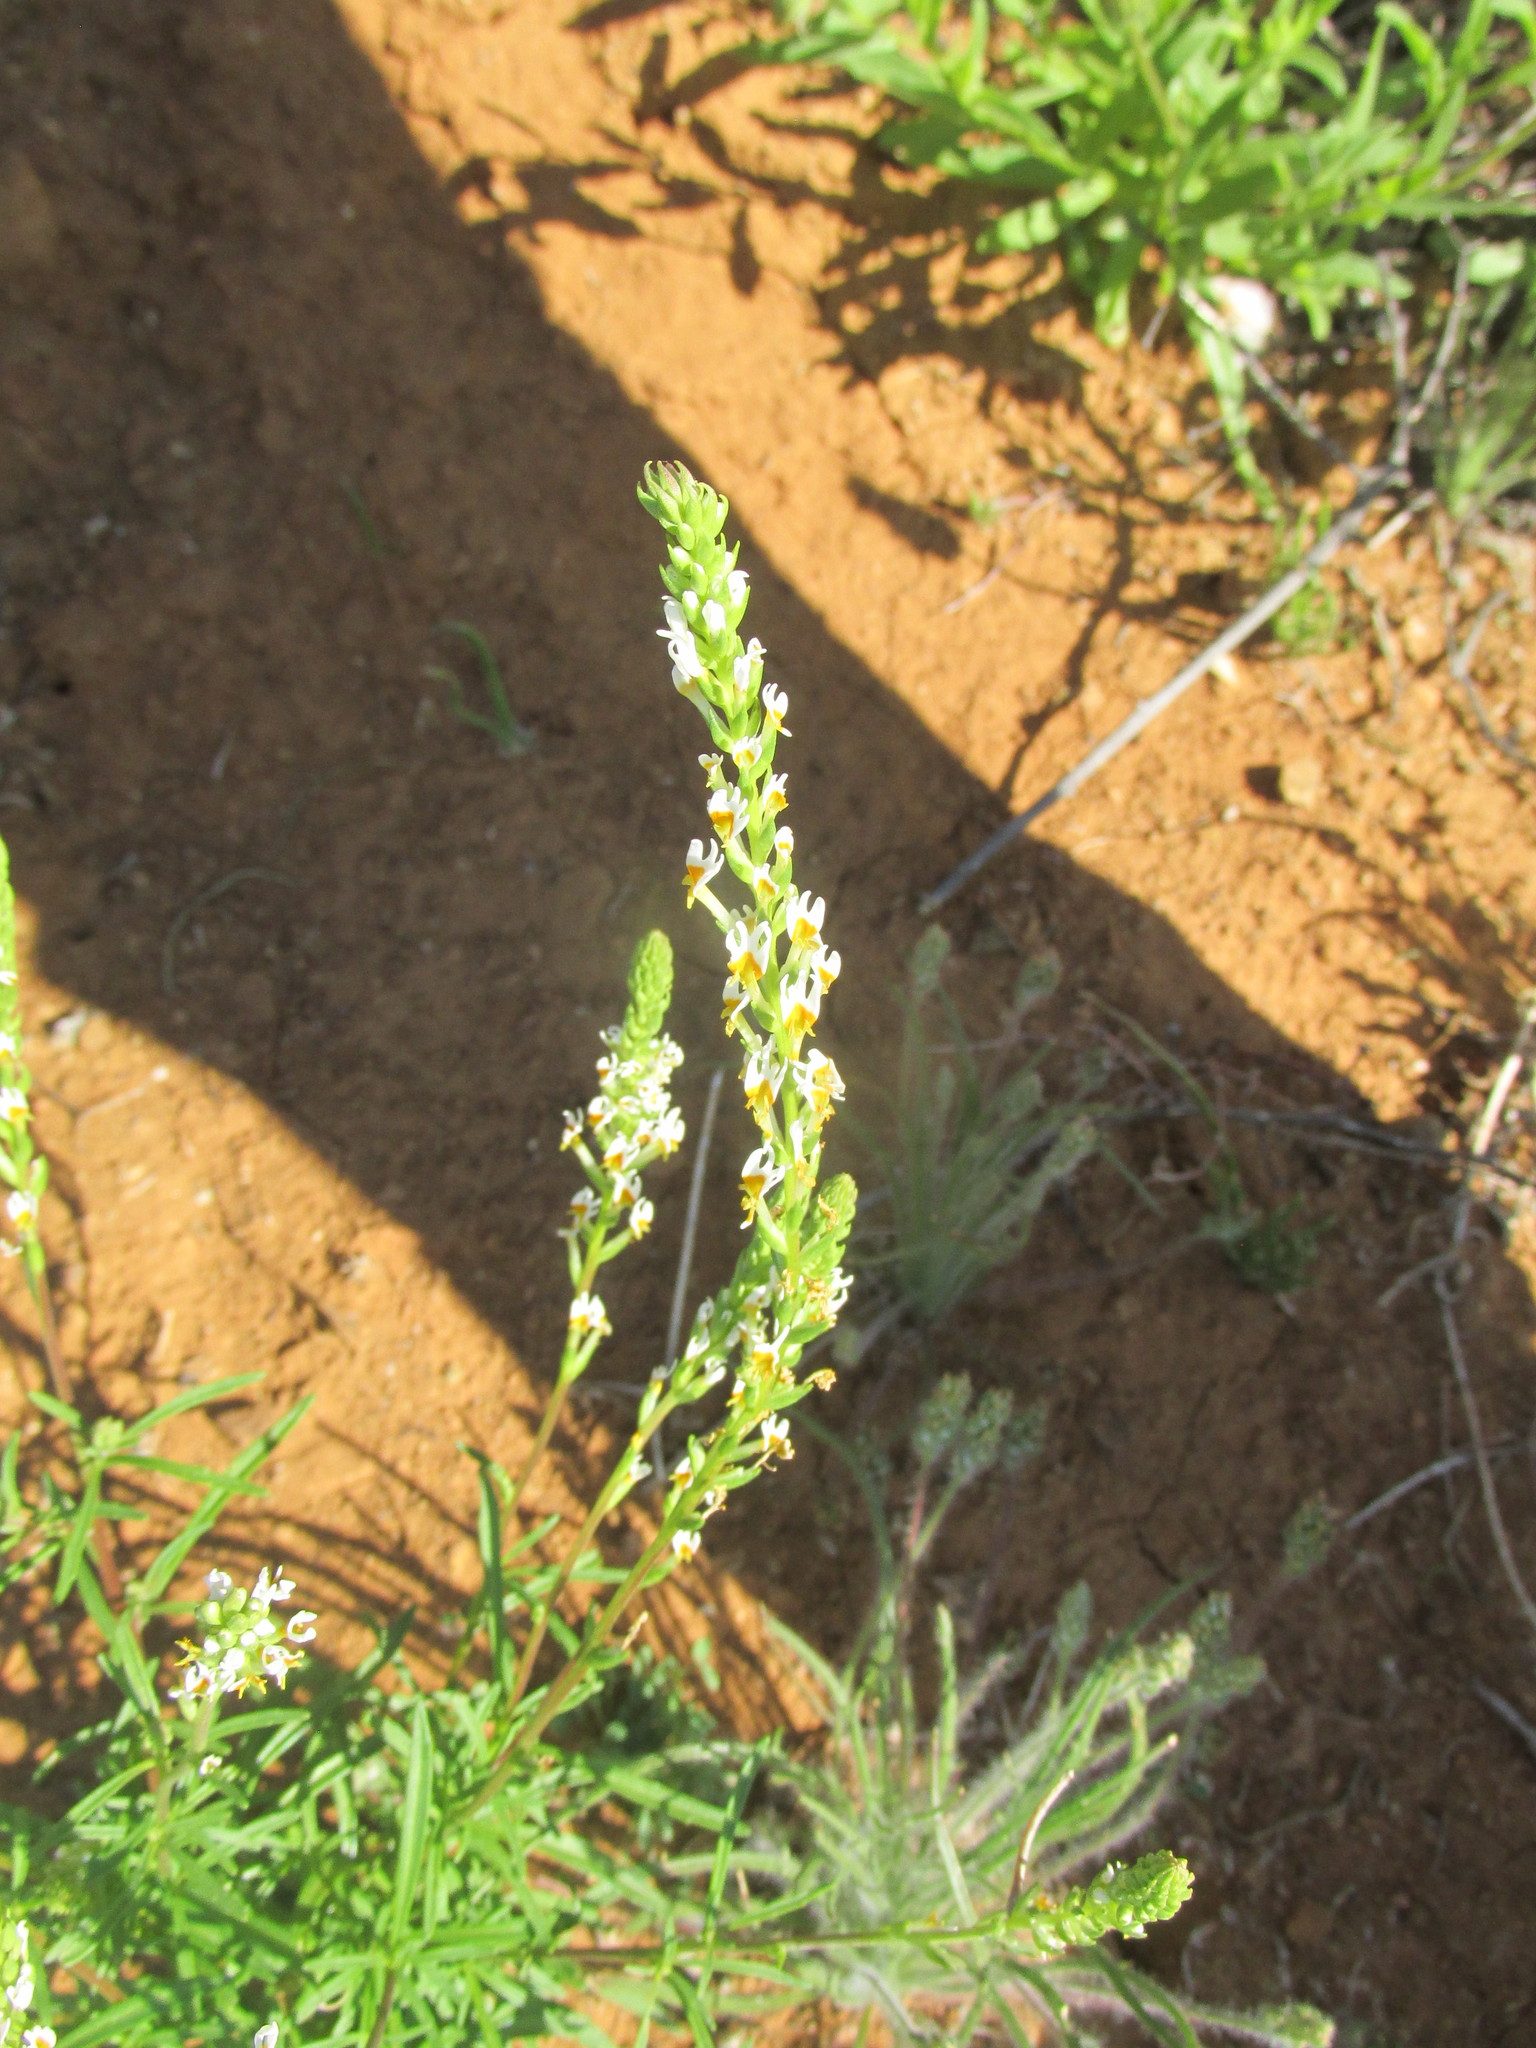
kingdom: Plantae
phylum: Tracheophyta
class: Magnoliopsida
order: Lamiales
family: Scrophulariaceae
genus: Hebenstretia
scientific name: Hebenstretia integrifolia
